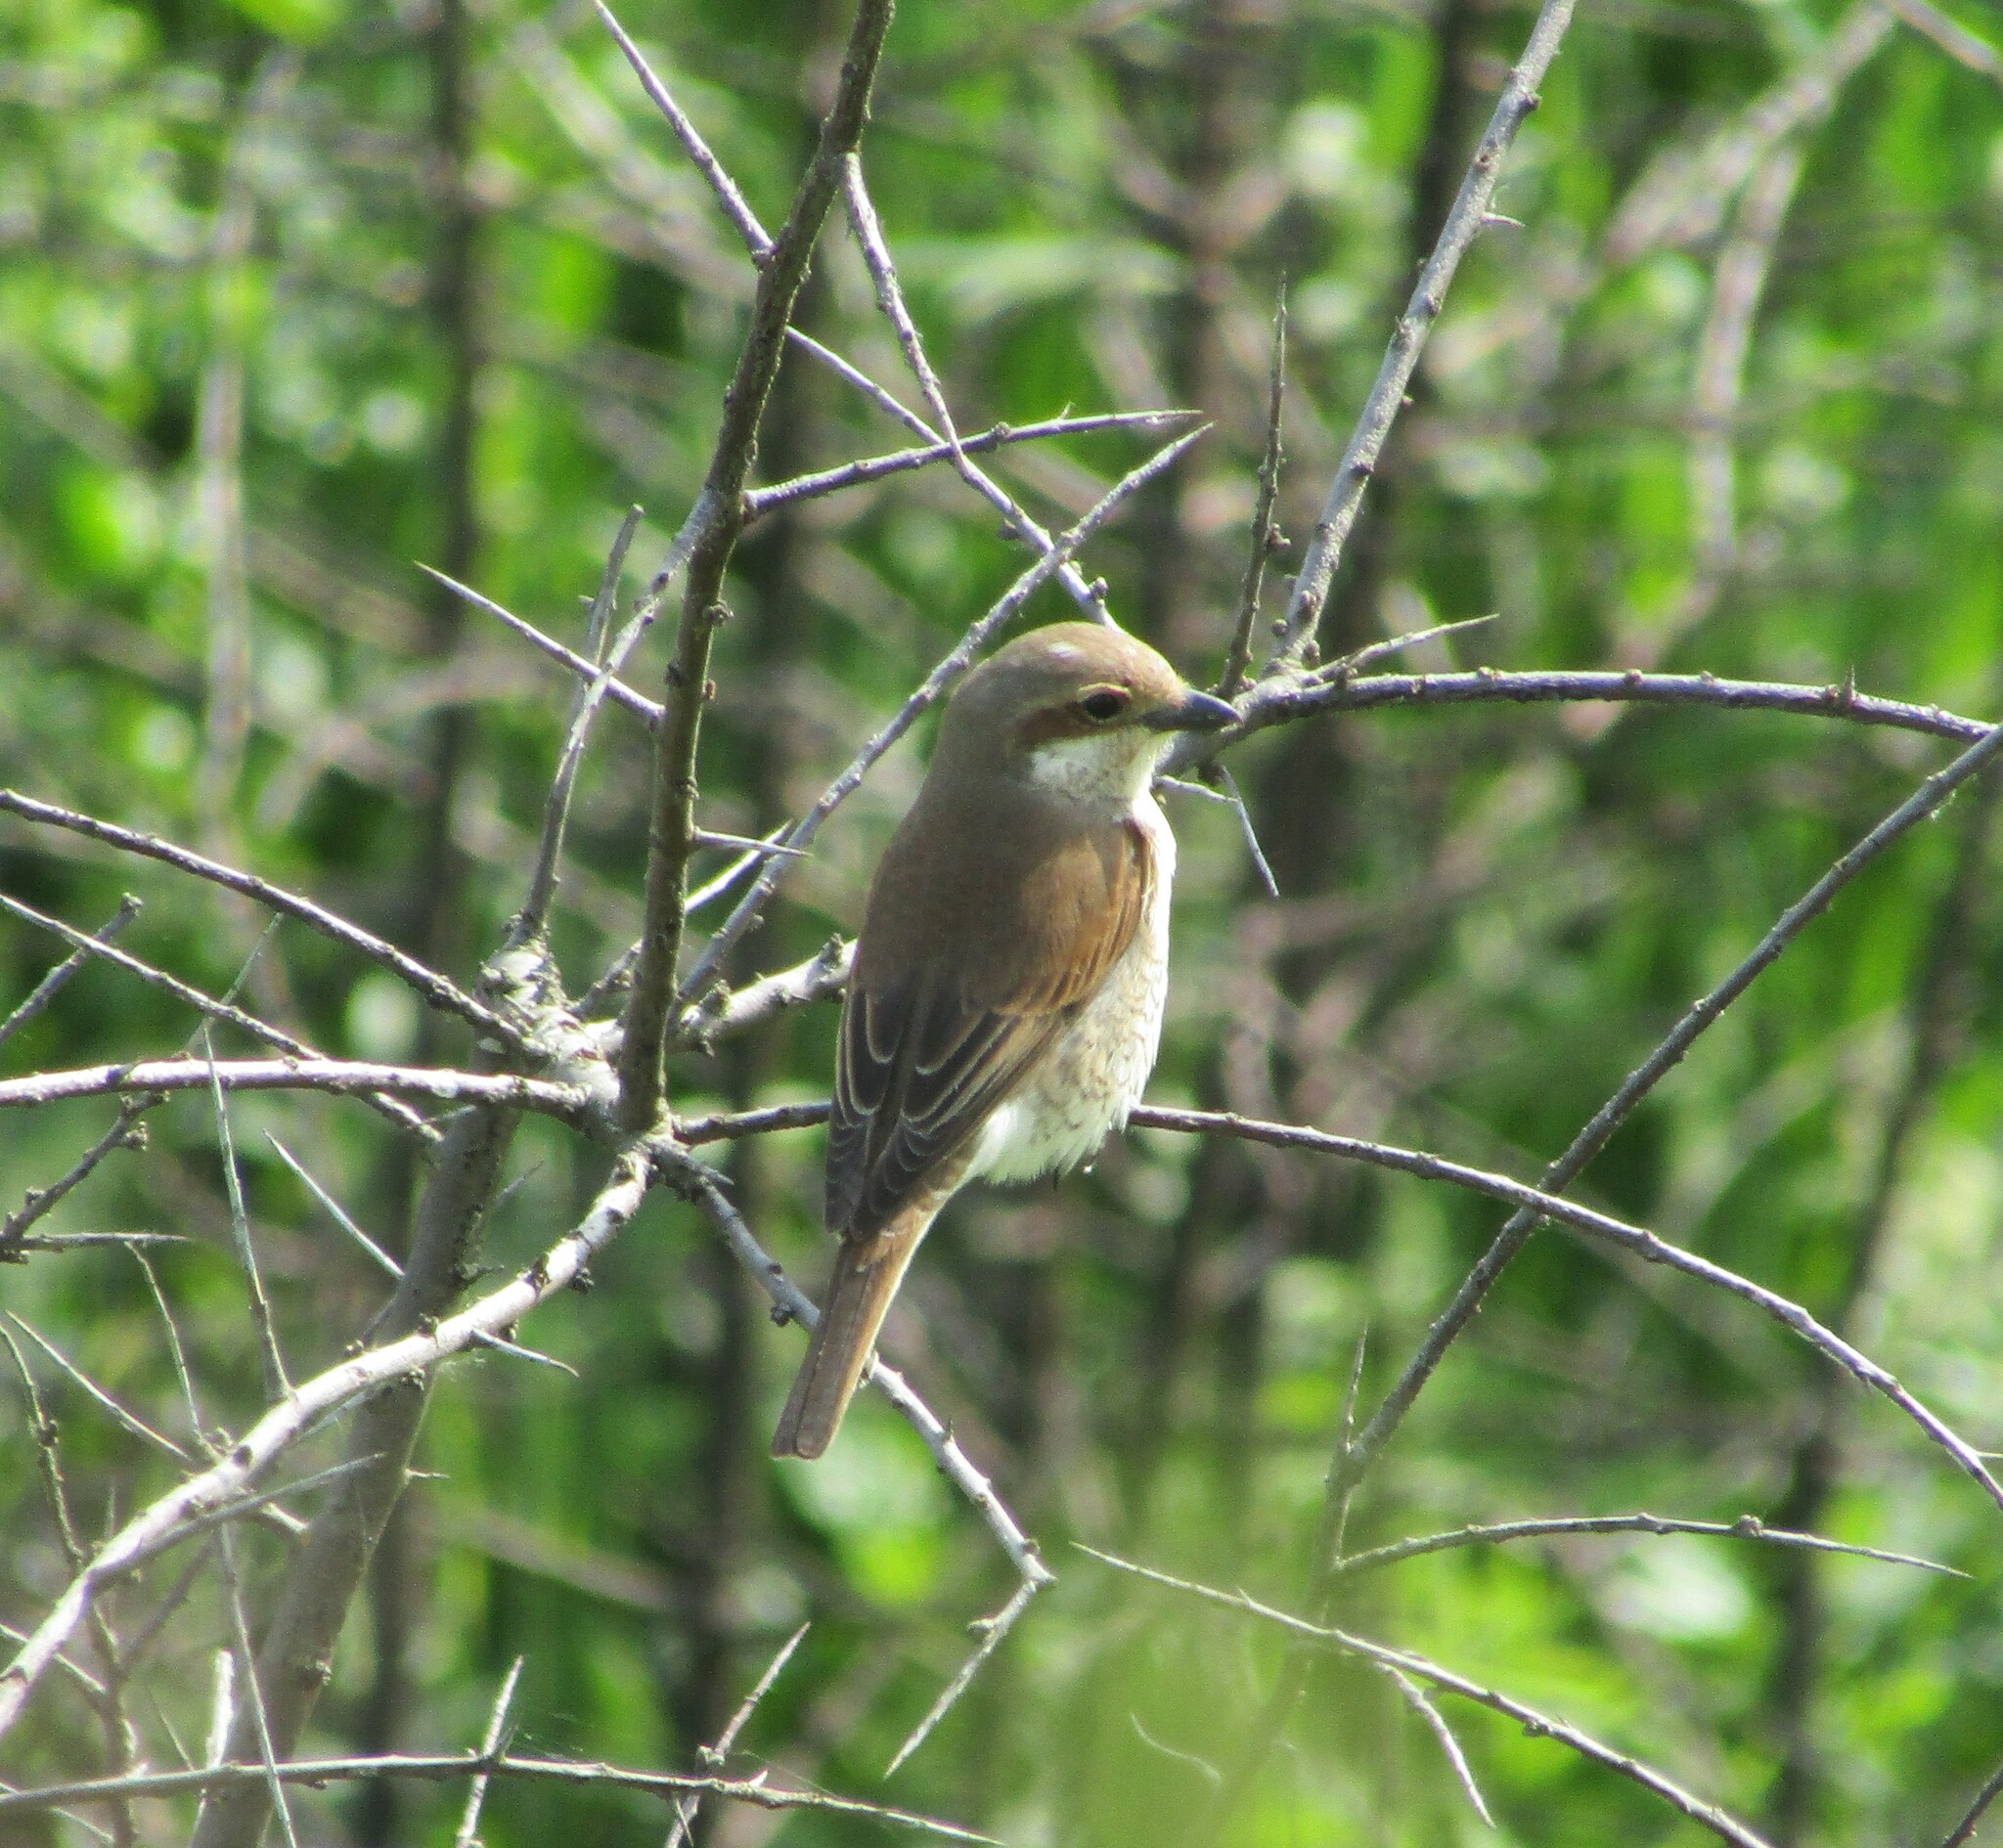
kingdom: Animalia
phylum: Chordata
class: Aves
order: Passeriformes
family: Laniidae
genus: Lanius
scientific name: Lanius collurio
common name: Red-backed shrike
